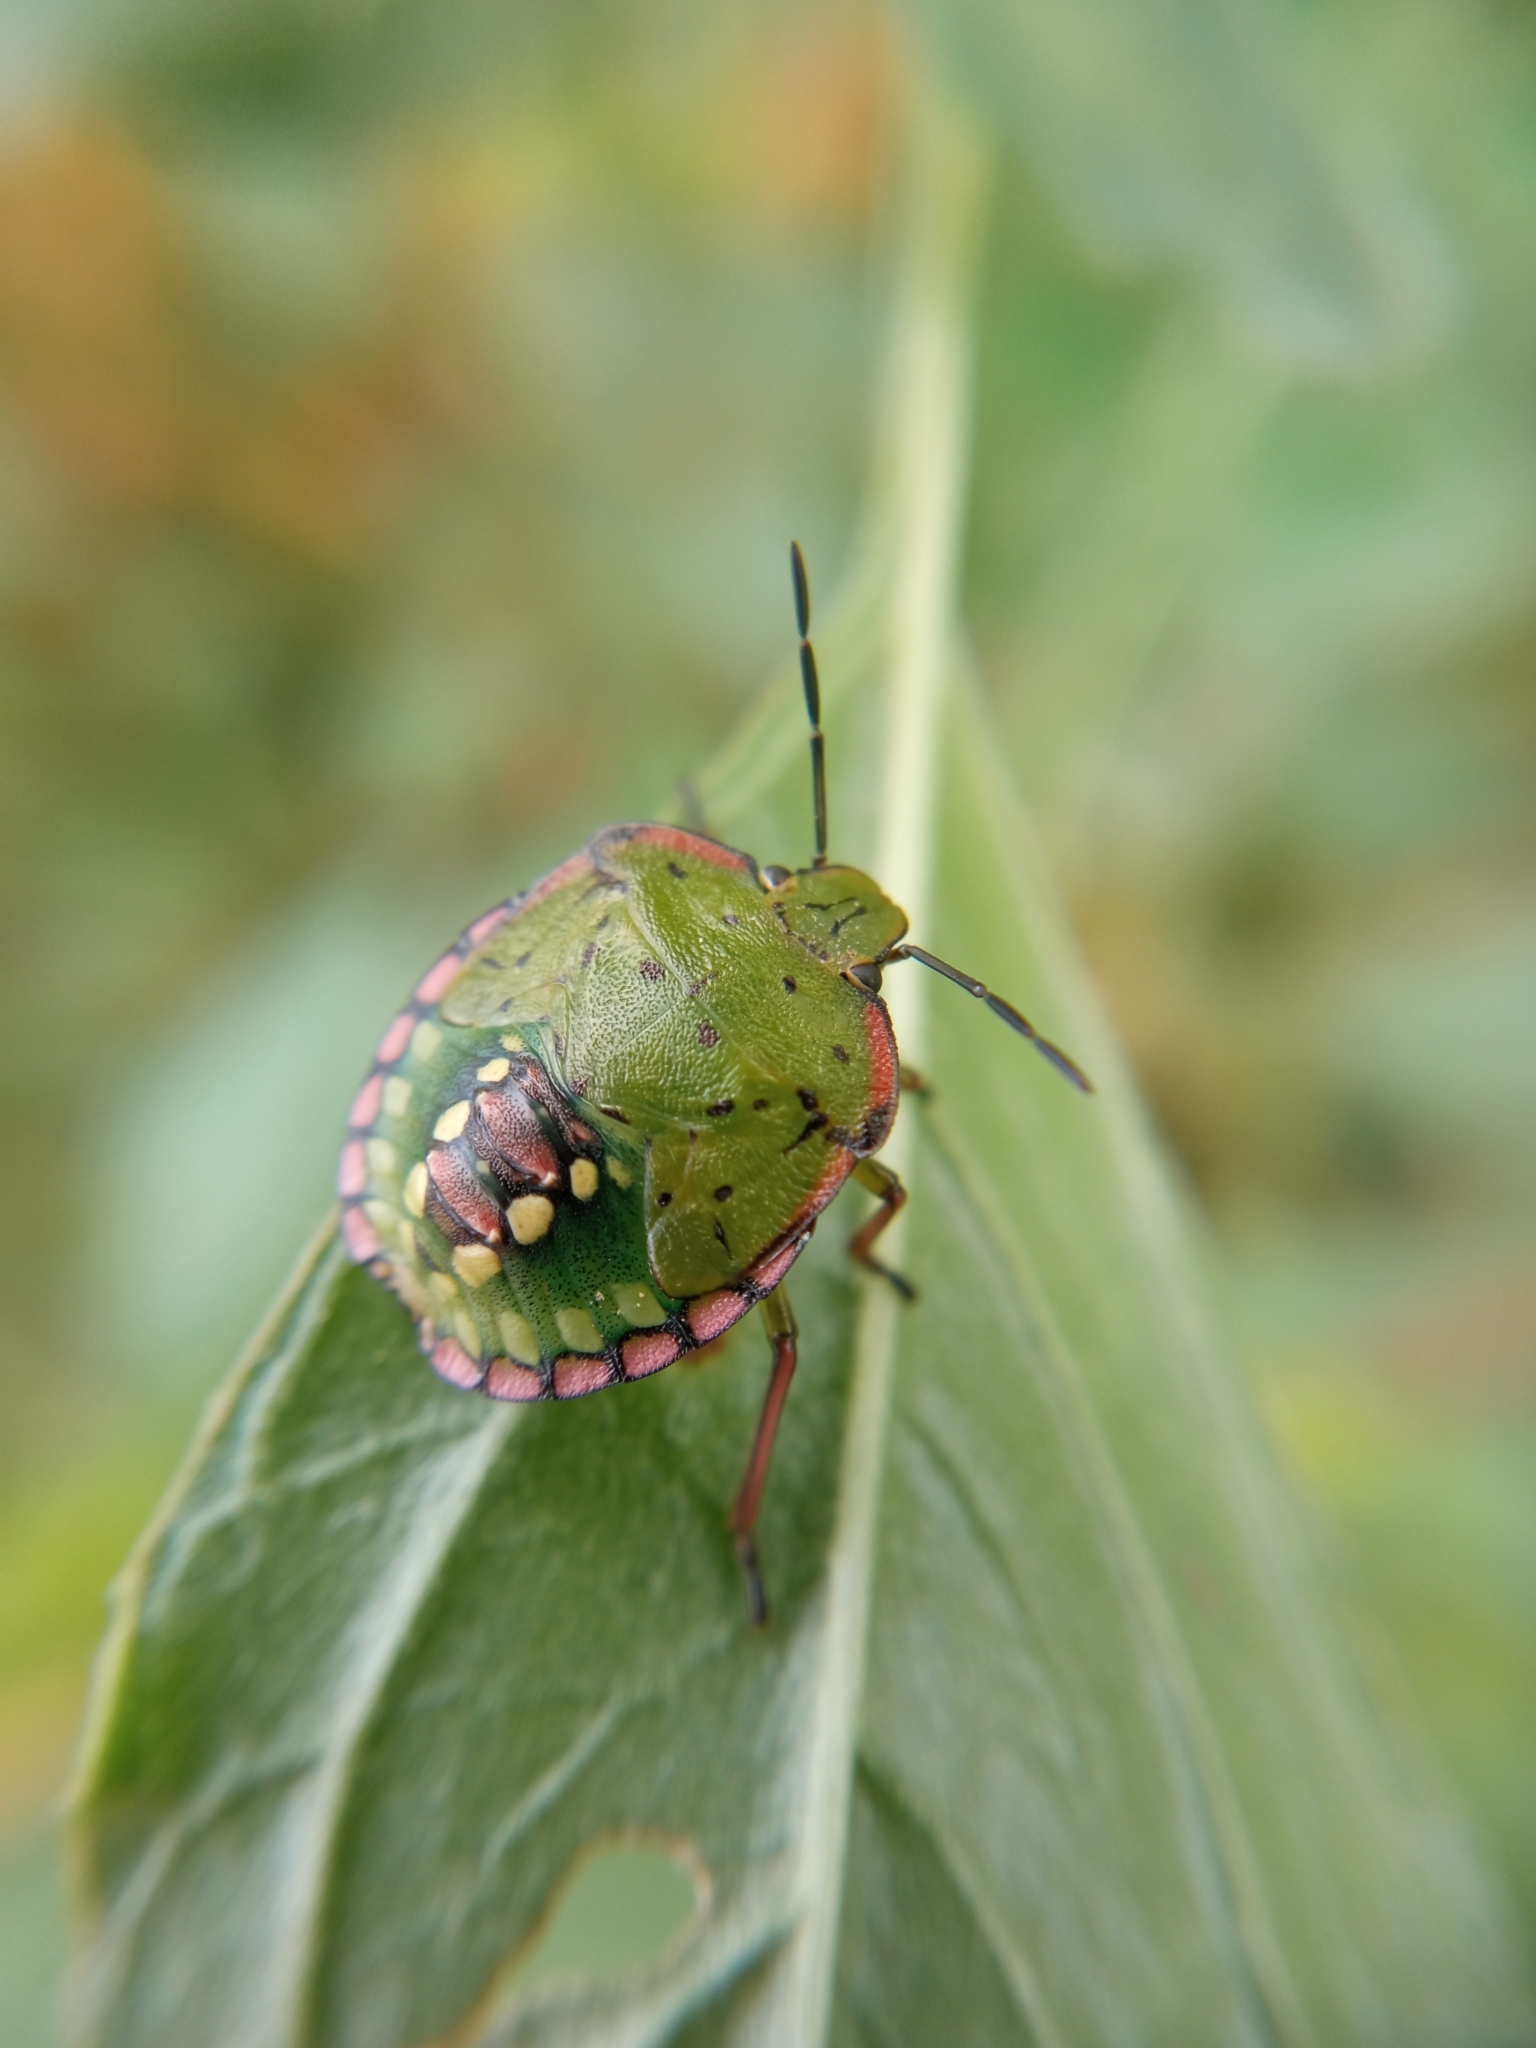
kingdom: Animalia
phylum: Arthropoda
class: Insecta
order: Hemiptera
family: Pentatomidae
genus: Nezara
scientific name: Nezara viridula
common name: Southern green stink bug
